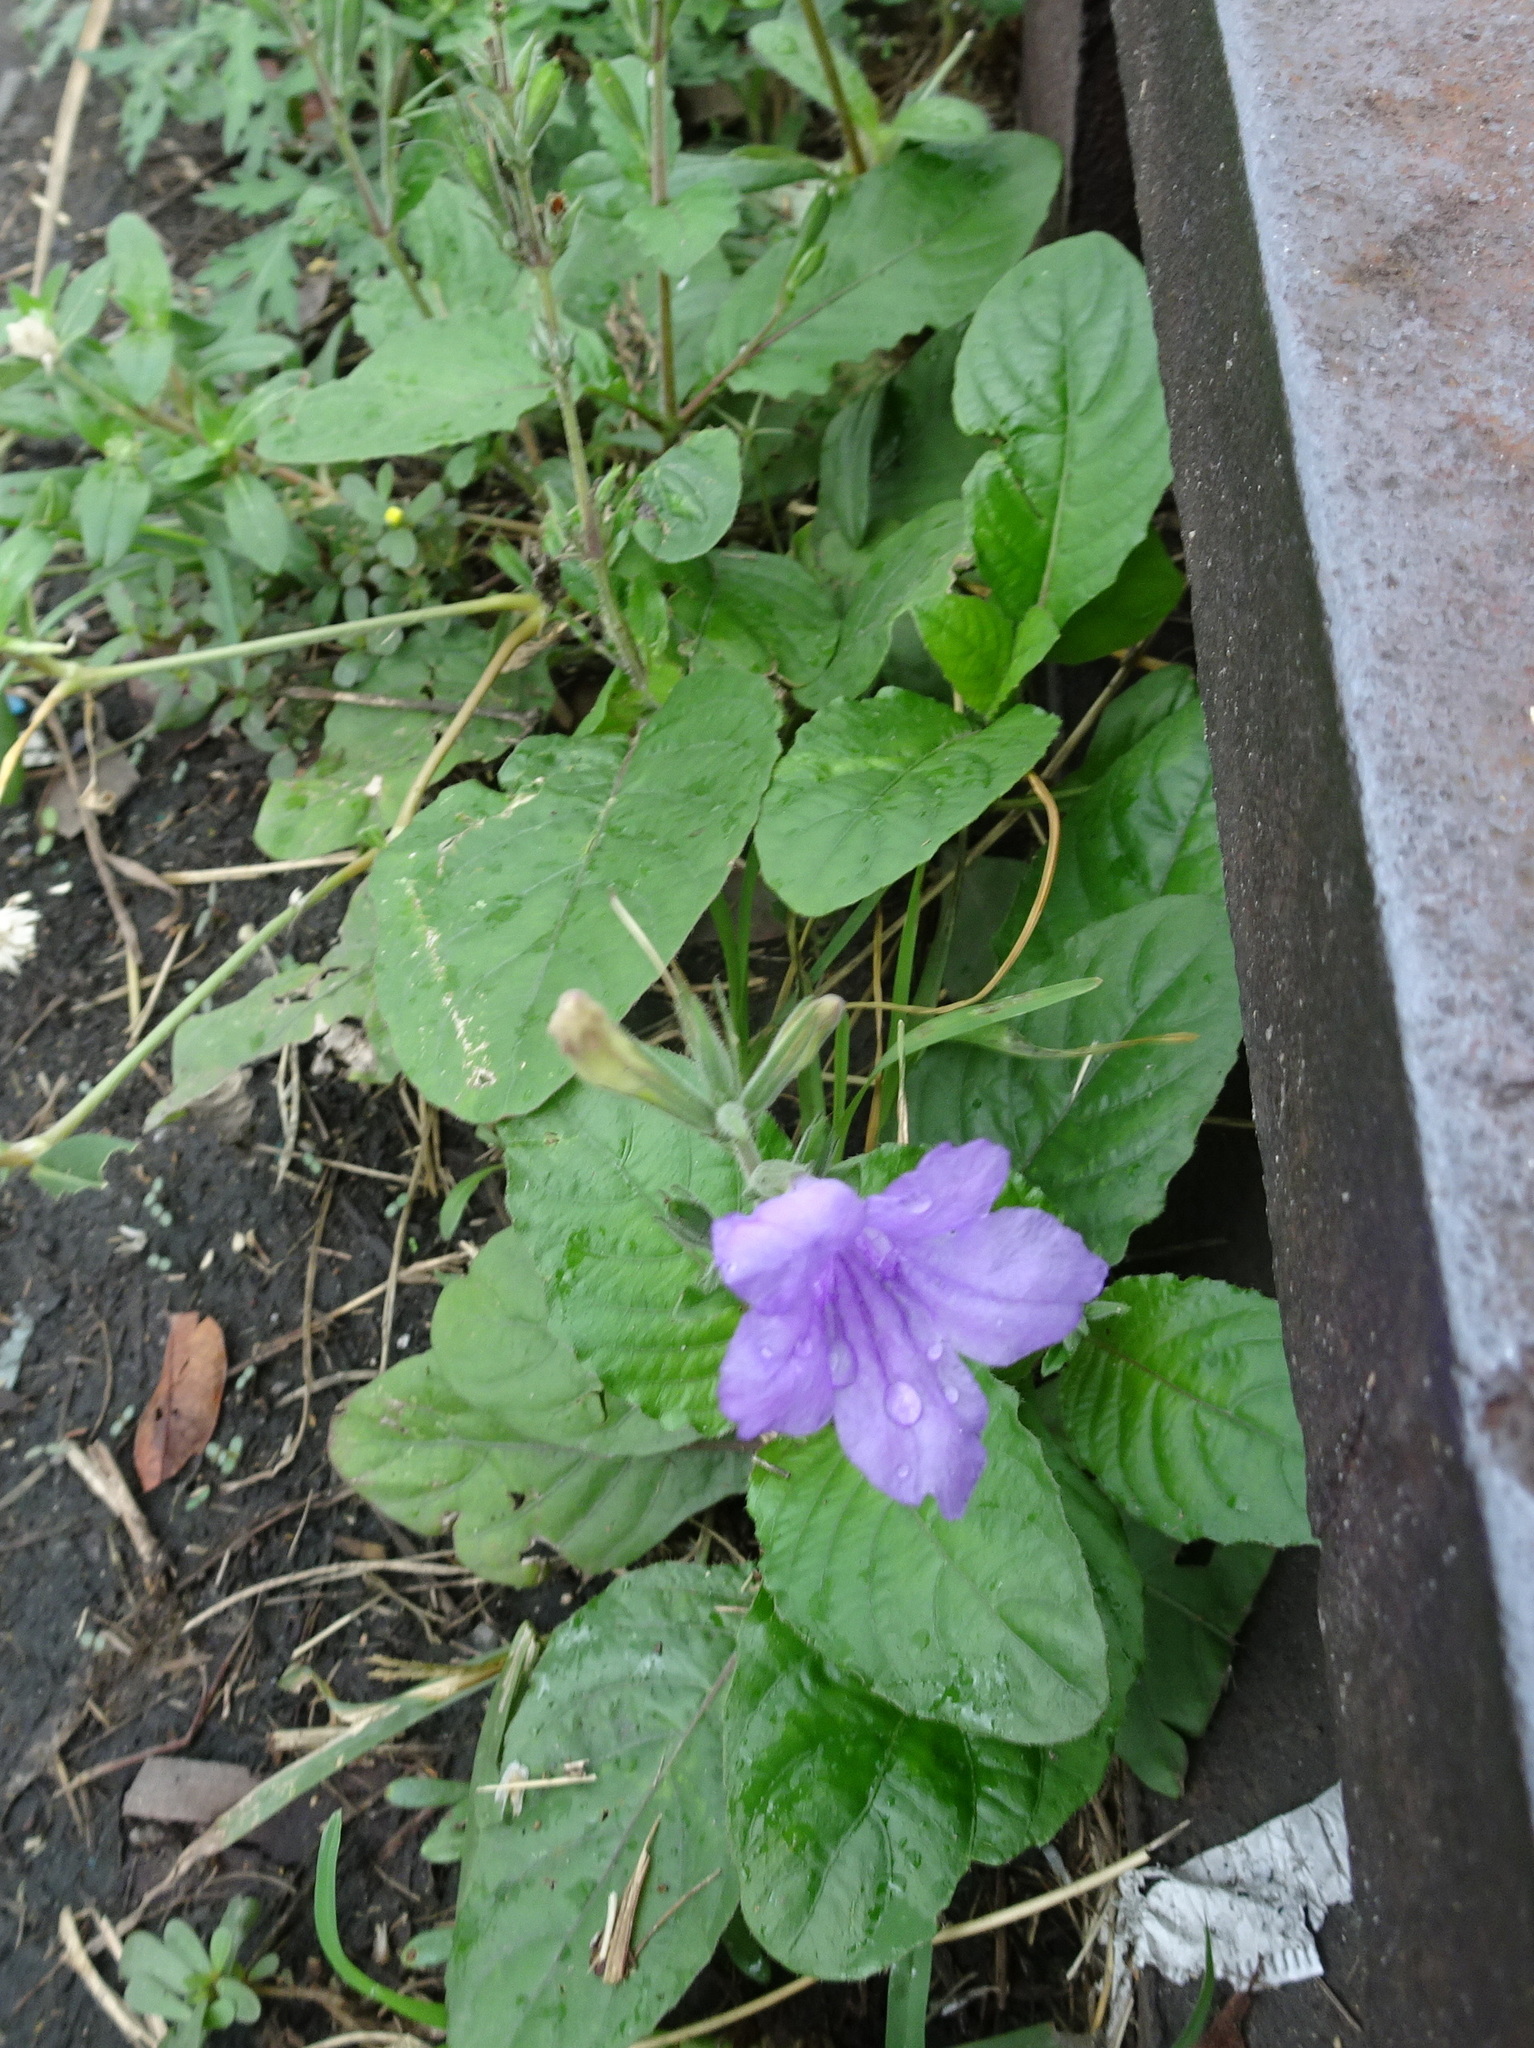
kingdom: Plantae
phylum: Tracheophyta
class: Magnoliopsida
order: Lamiales
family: Acanthaceae
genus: Ruellia
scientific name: Ruellia ciliatiflora
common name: Hairyflower wild petunia
